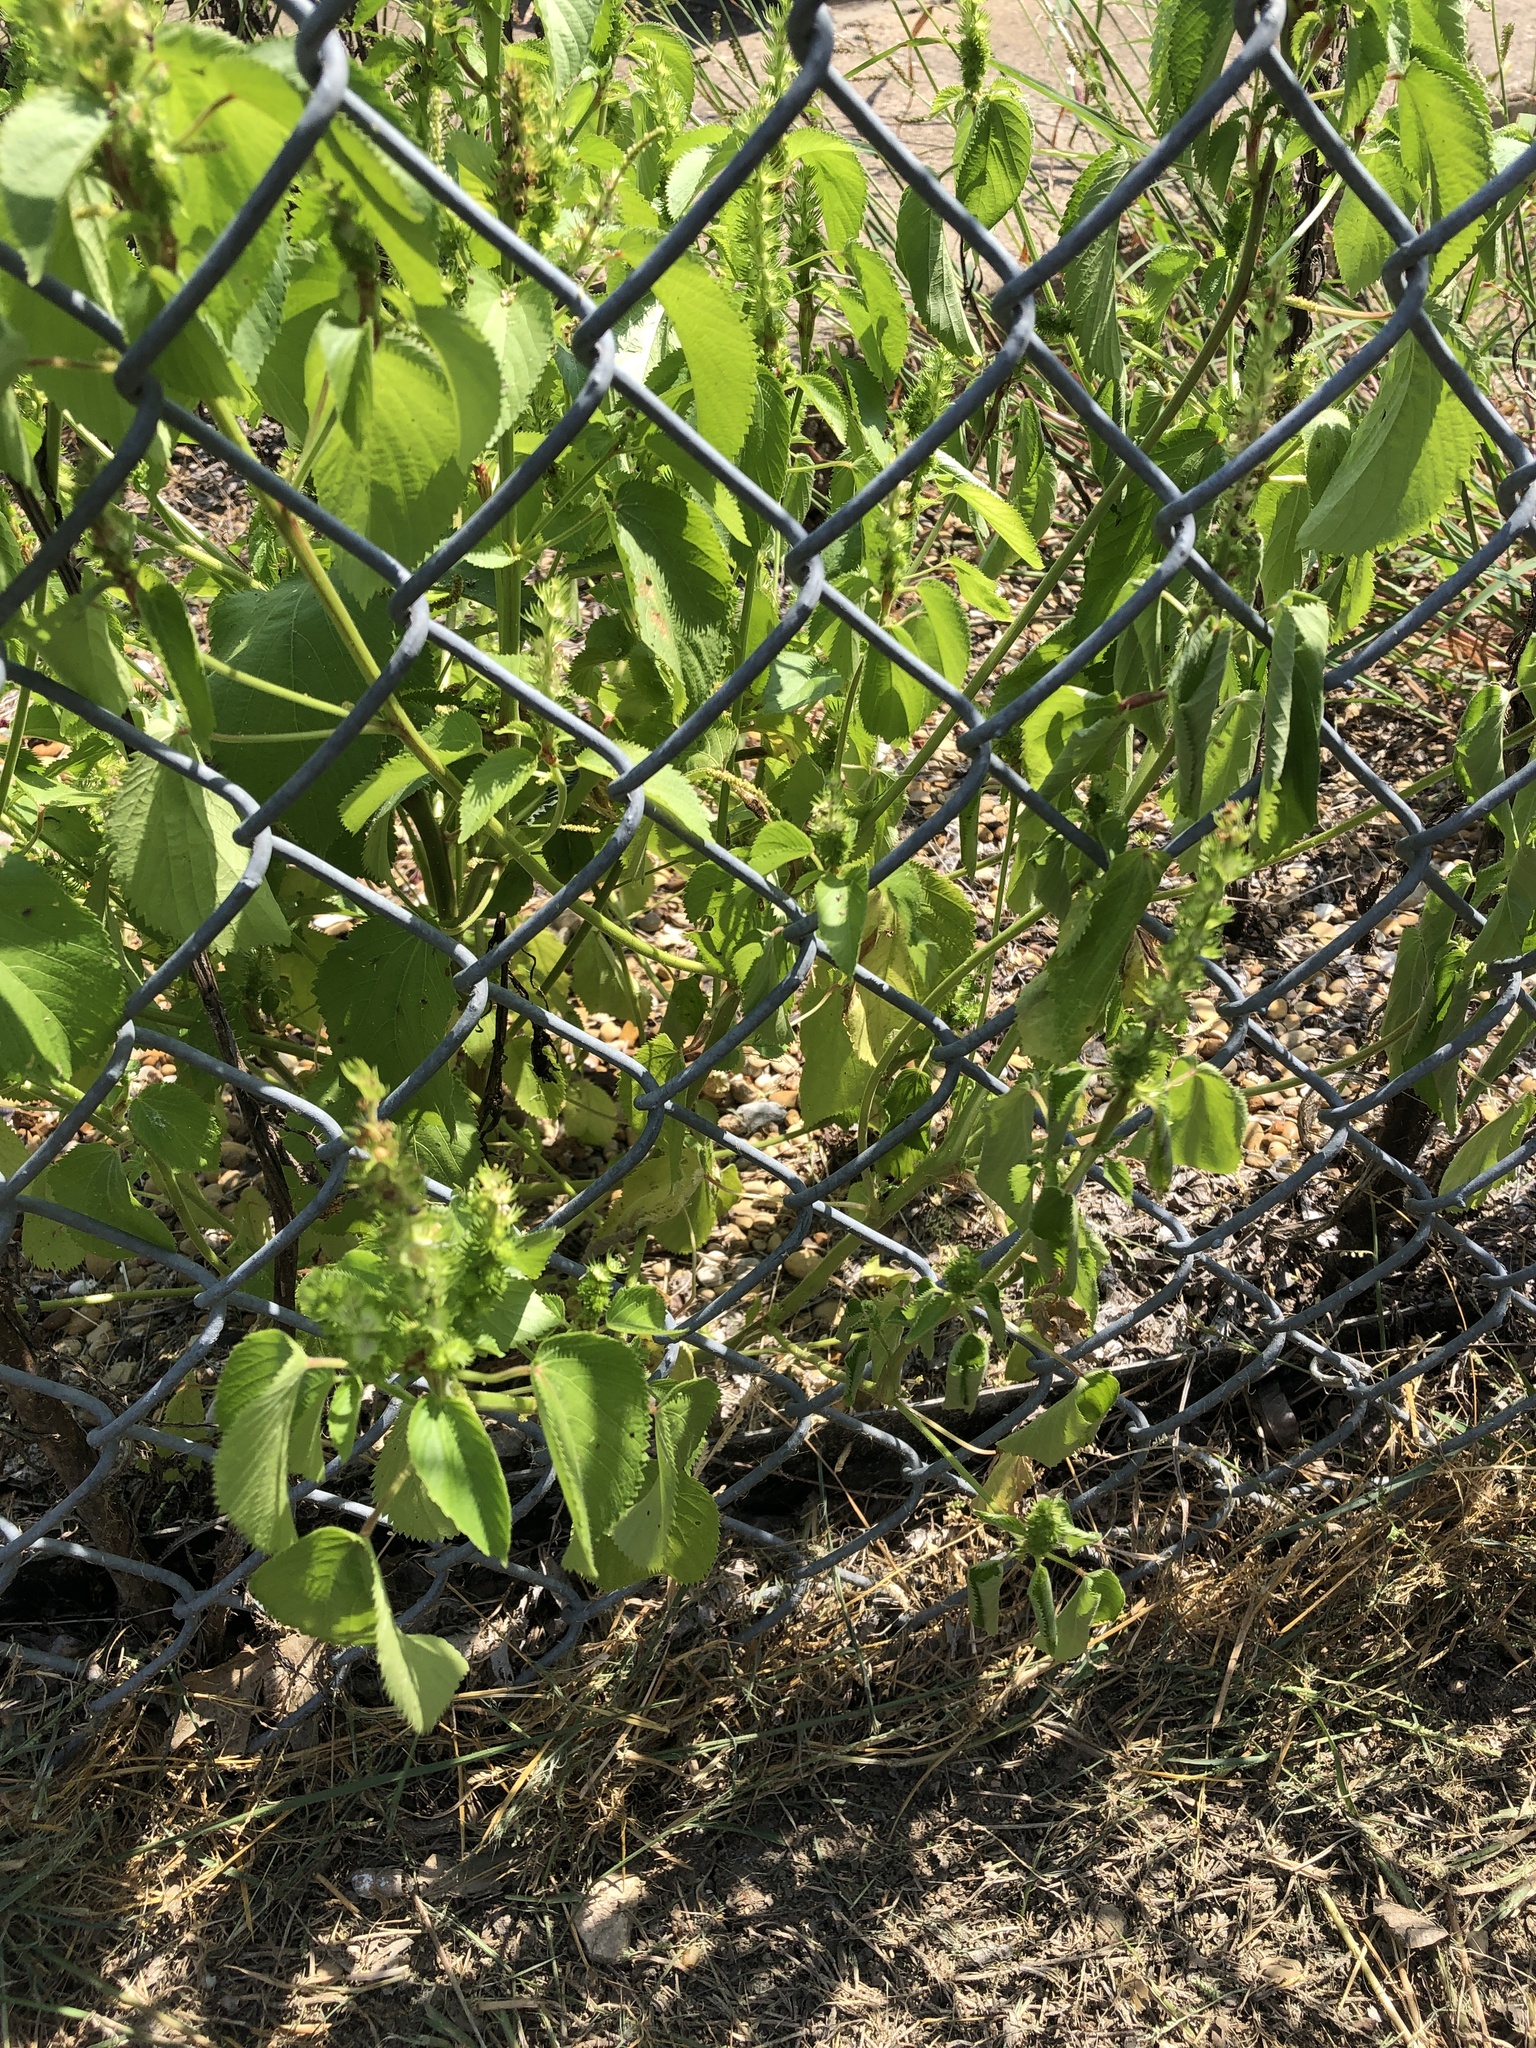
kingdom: Plantae
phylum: Tracheophyta
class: Magnoliopsida
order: Malpighiales
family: Euphorbiaceae
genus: Acalypha
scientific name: Acalypha ostryifolia
